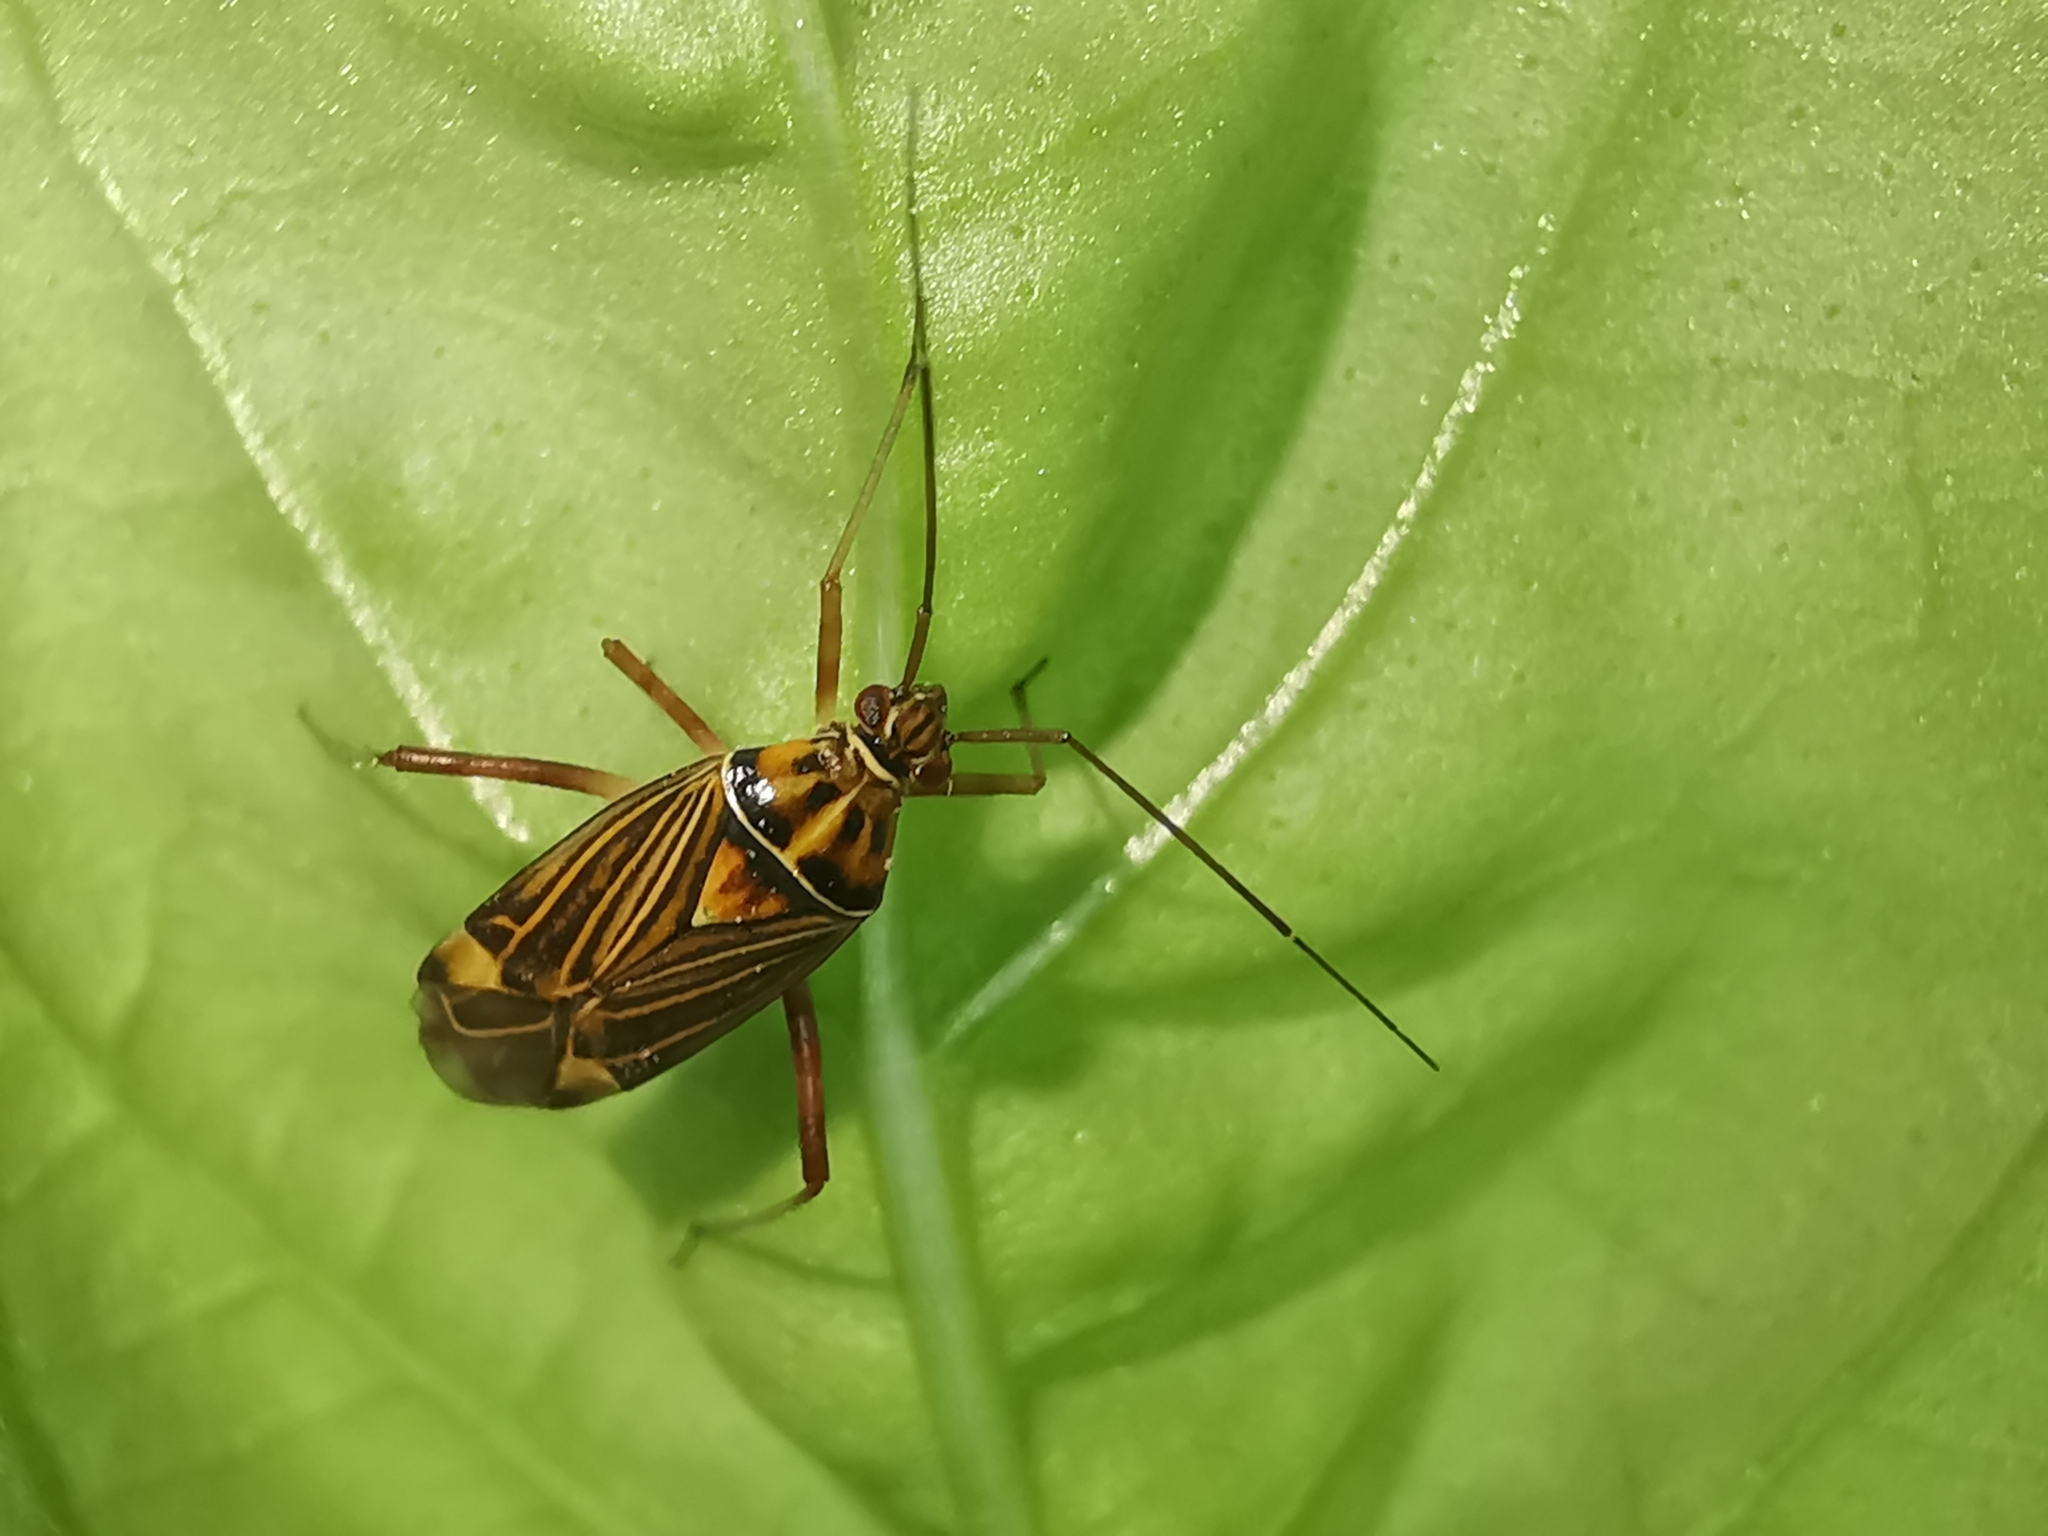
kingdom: Animalia
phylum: Arthropoda
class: Insecta
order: Hemiptera
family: Miridae
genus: Rhabdomiris
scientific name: Rhabdomiris striatellus
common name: Plant bug
